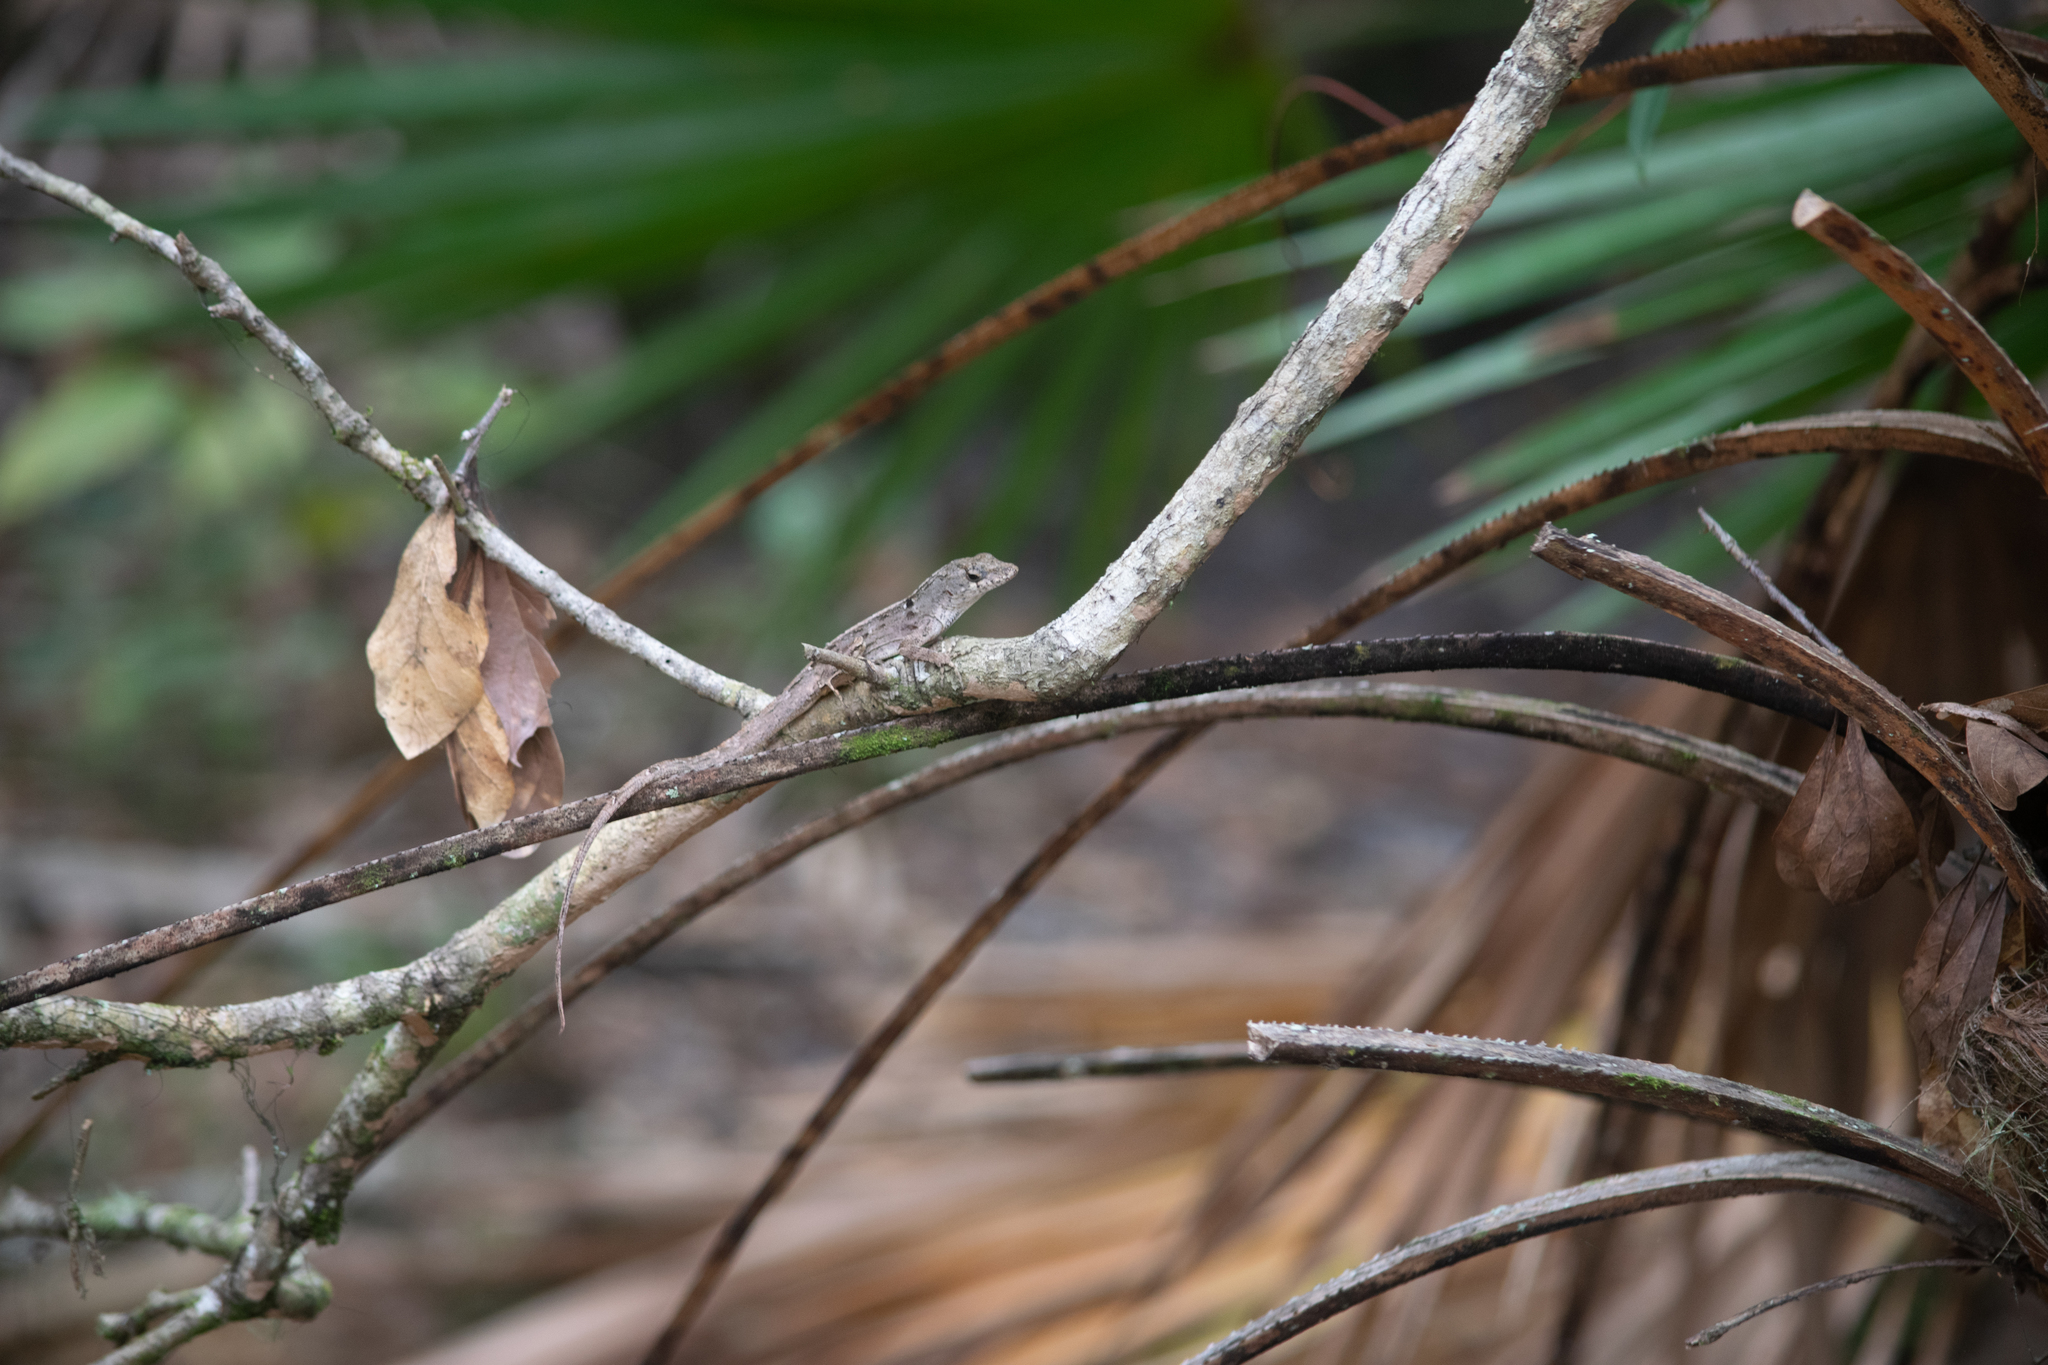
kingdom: Animalia
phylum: Chordata
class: Squamata
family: Dactyloidae
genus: Anolis
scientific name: Anolis sagrei
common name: Brown anole
